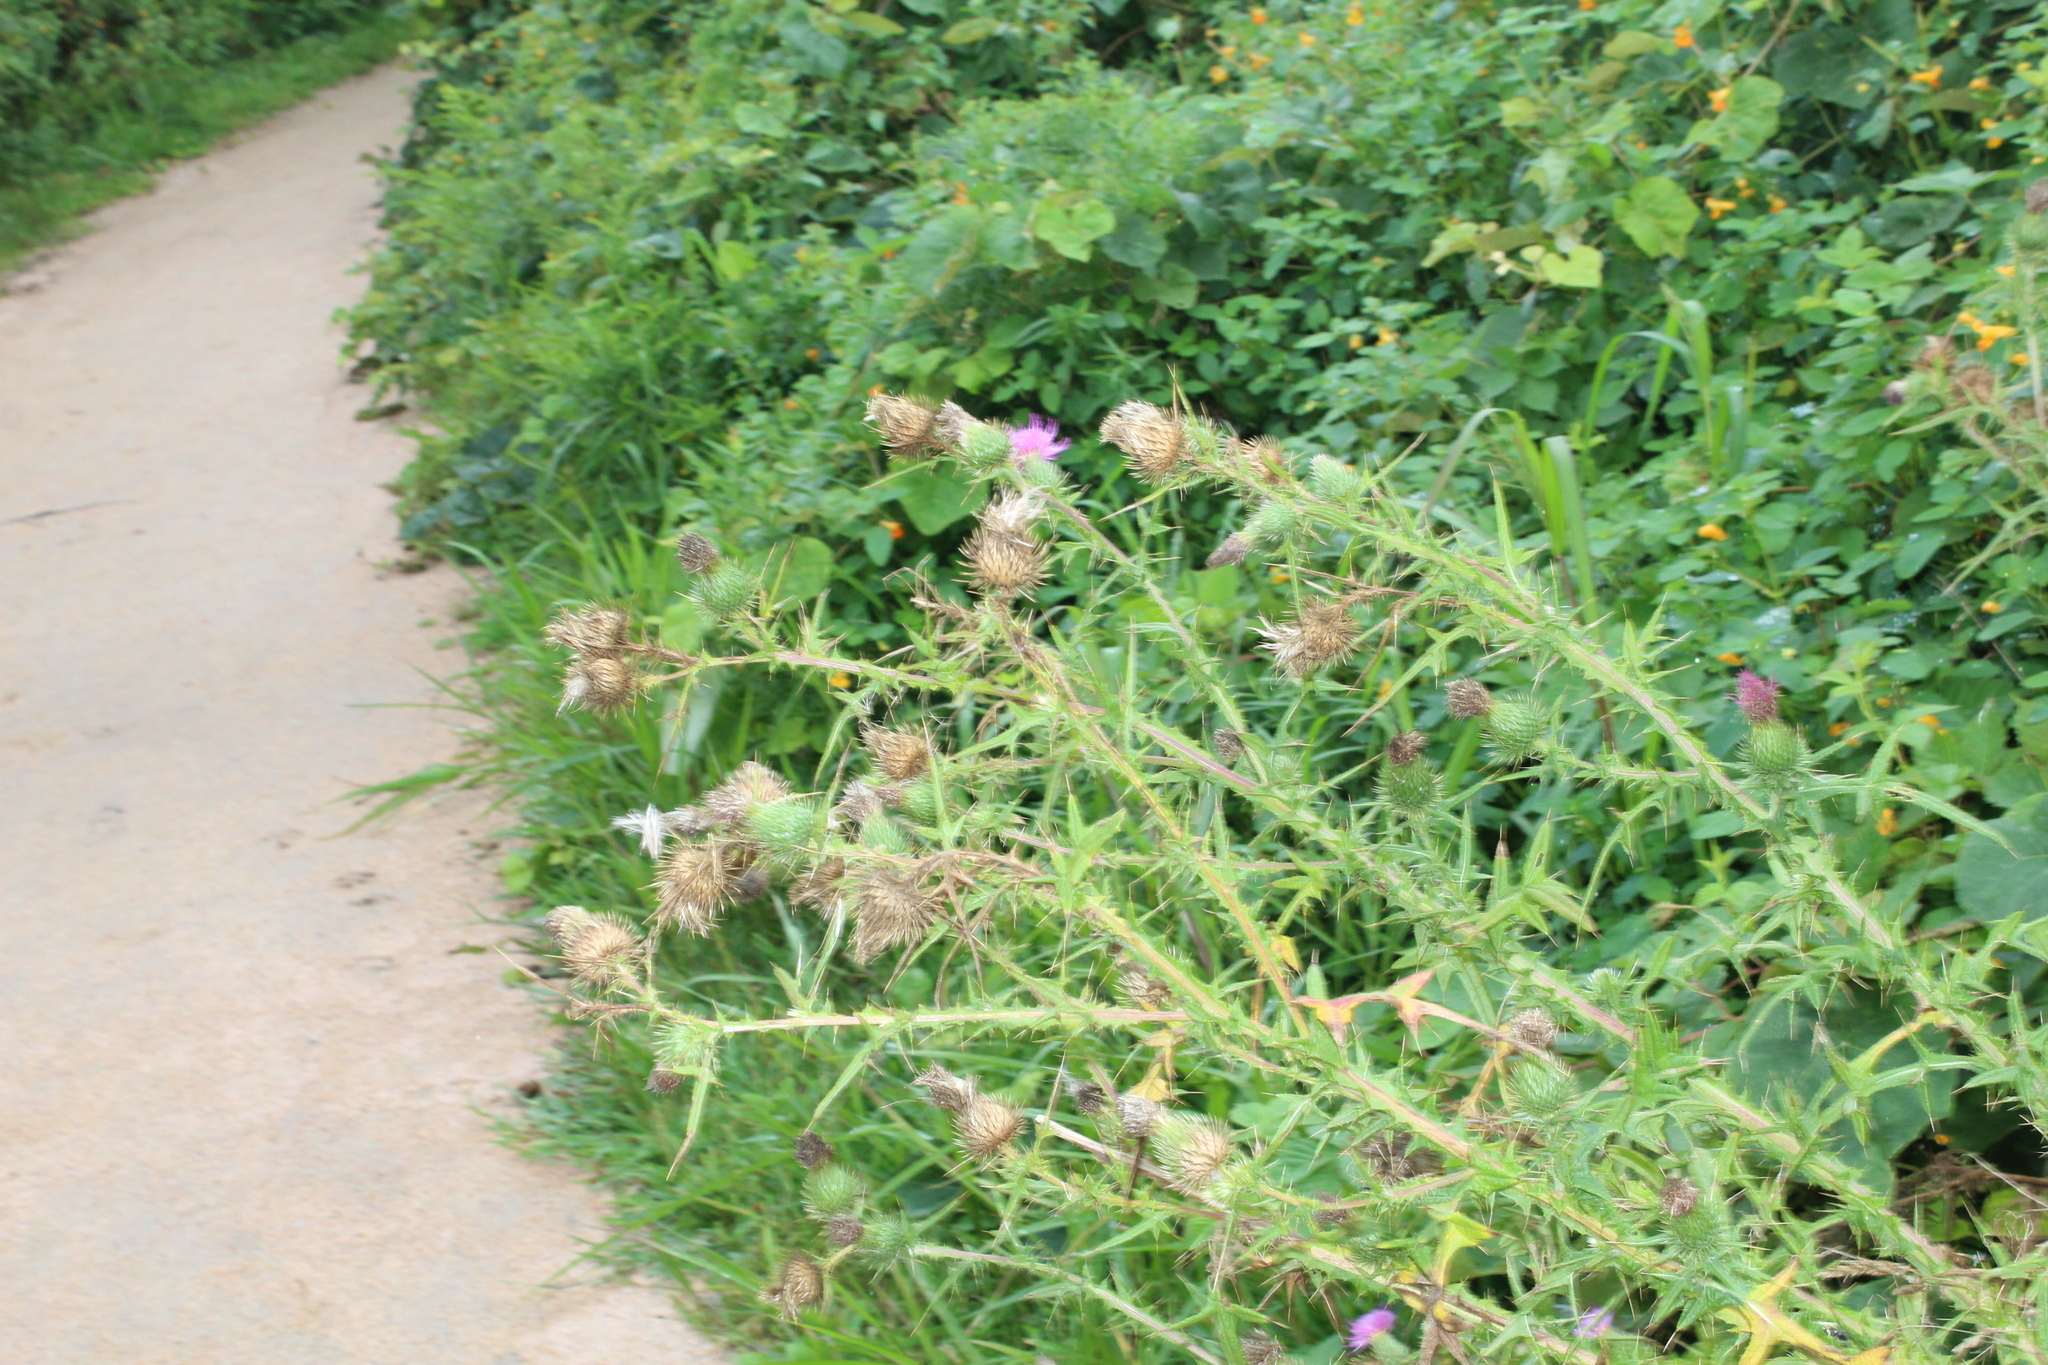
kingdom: Plantae
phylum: Tracheophyta
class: Magnoliopsida
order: Asterales
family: Asteraceae
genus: Cirsium
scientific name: Cirsium vulgare
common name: Bull thistle
